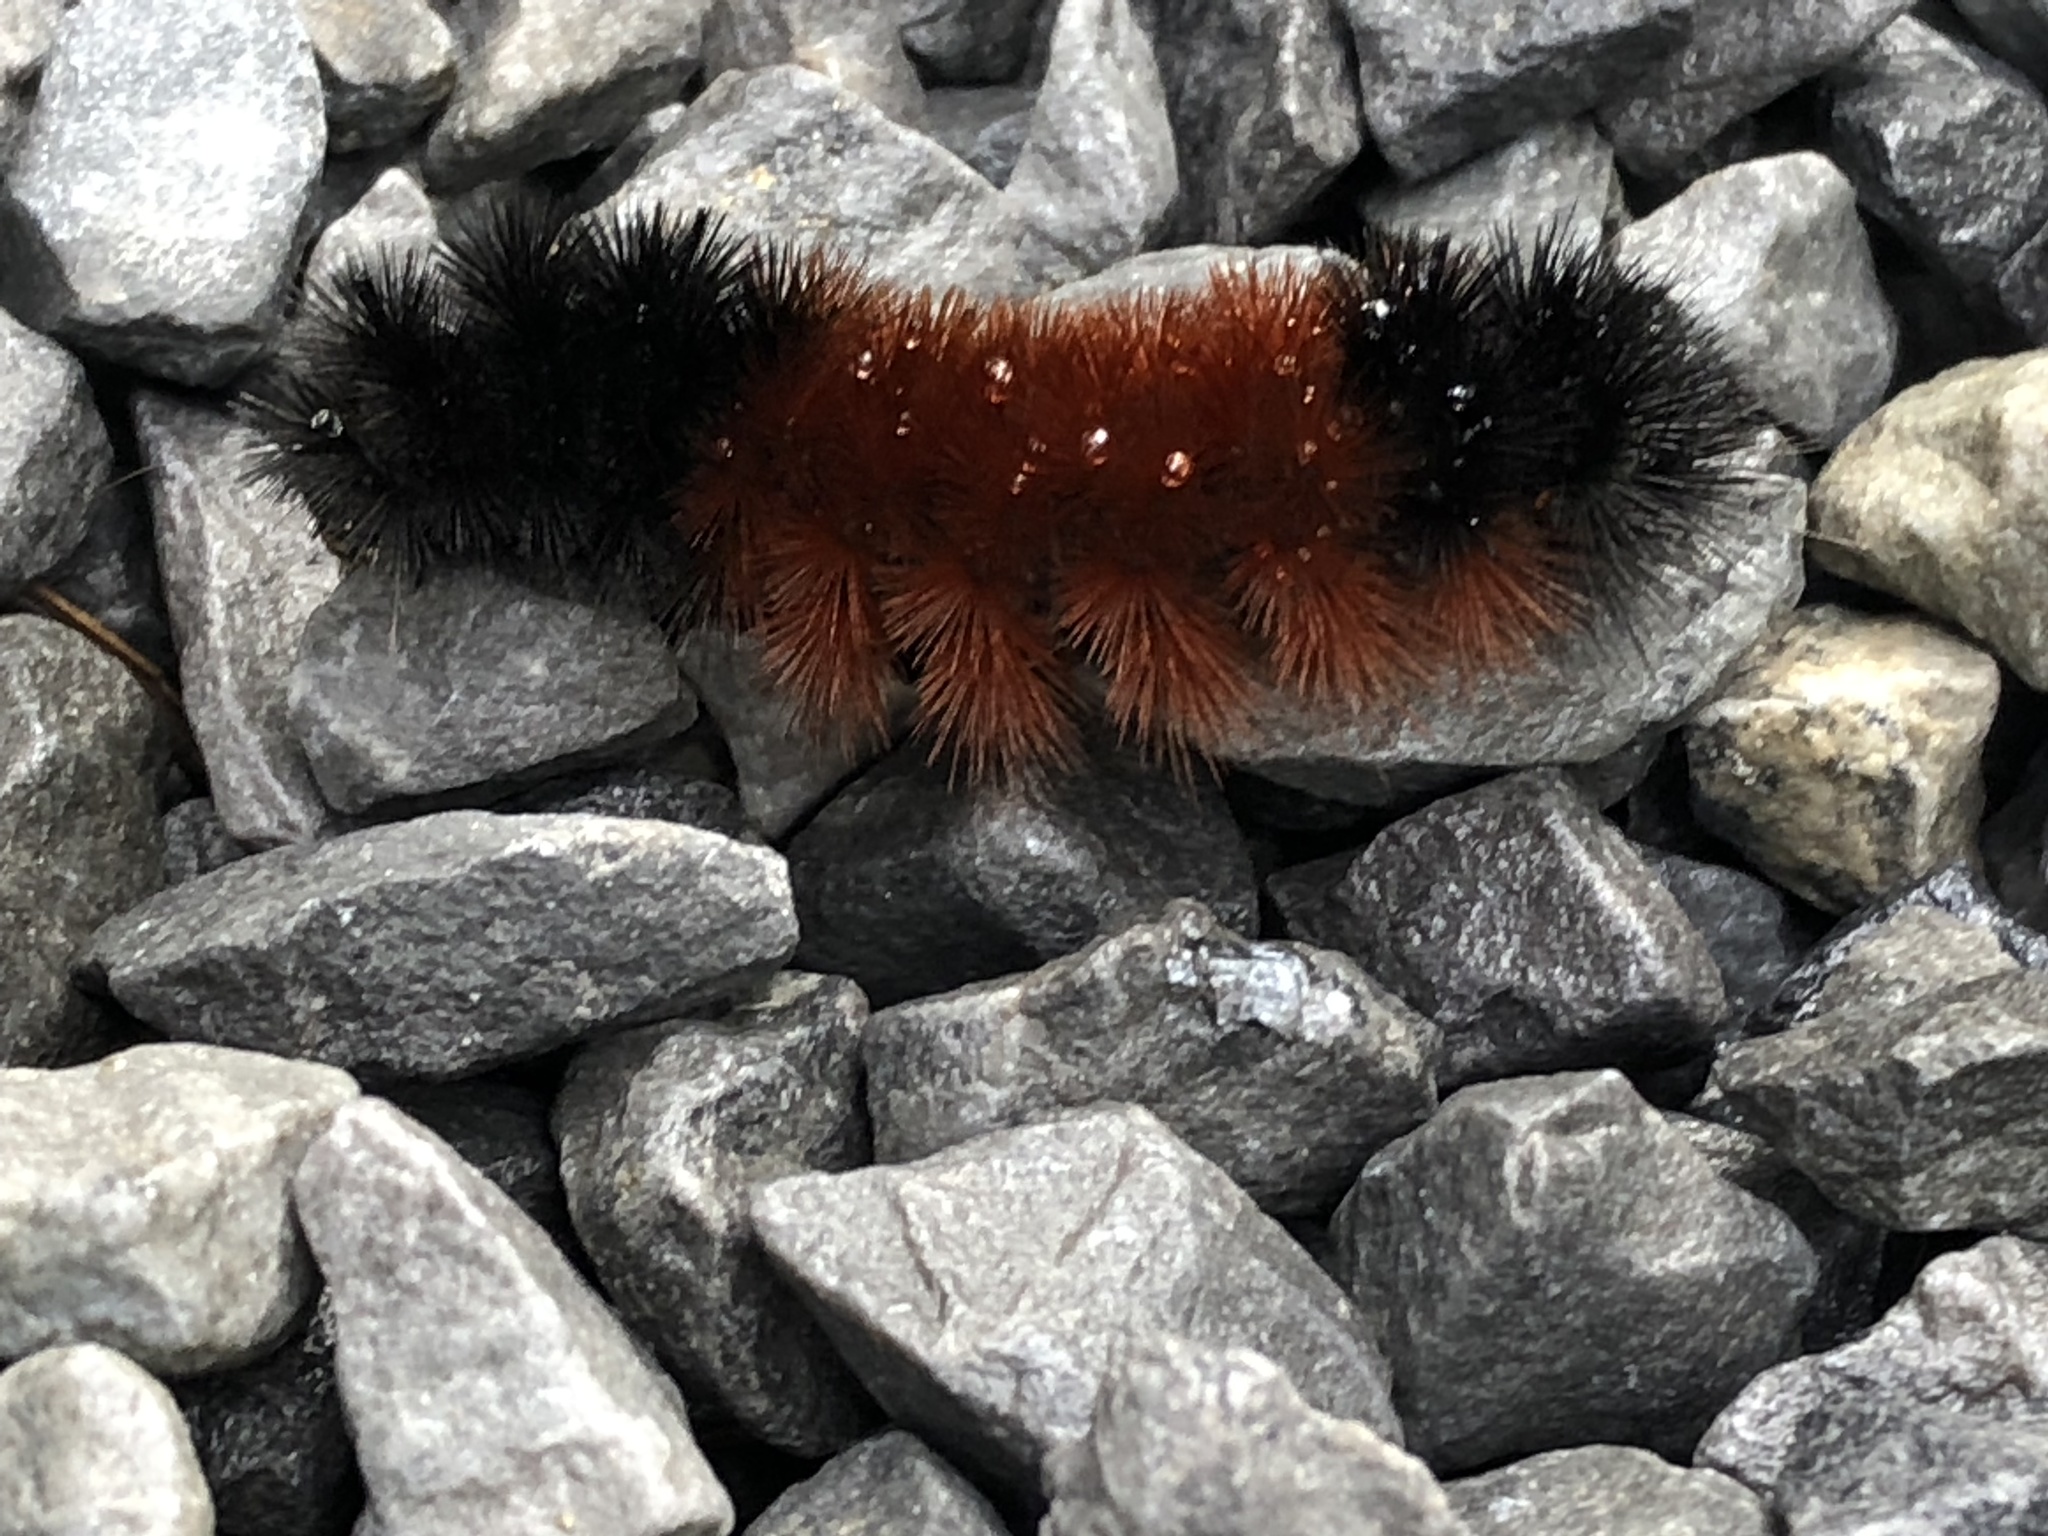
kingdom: Animalia
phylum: Arthropoda
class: Insecta
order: Lepidoptera
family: Erebidae
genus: Pyrrharctia
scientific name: Pyrrharctia isabella
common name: Isabella tiger moth
